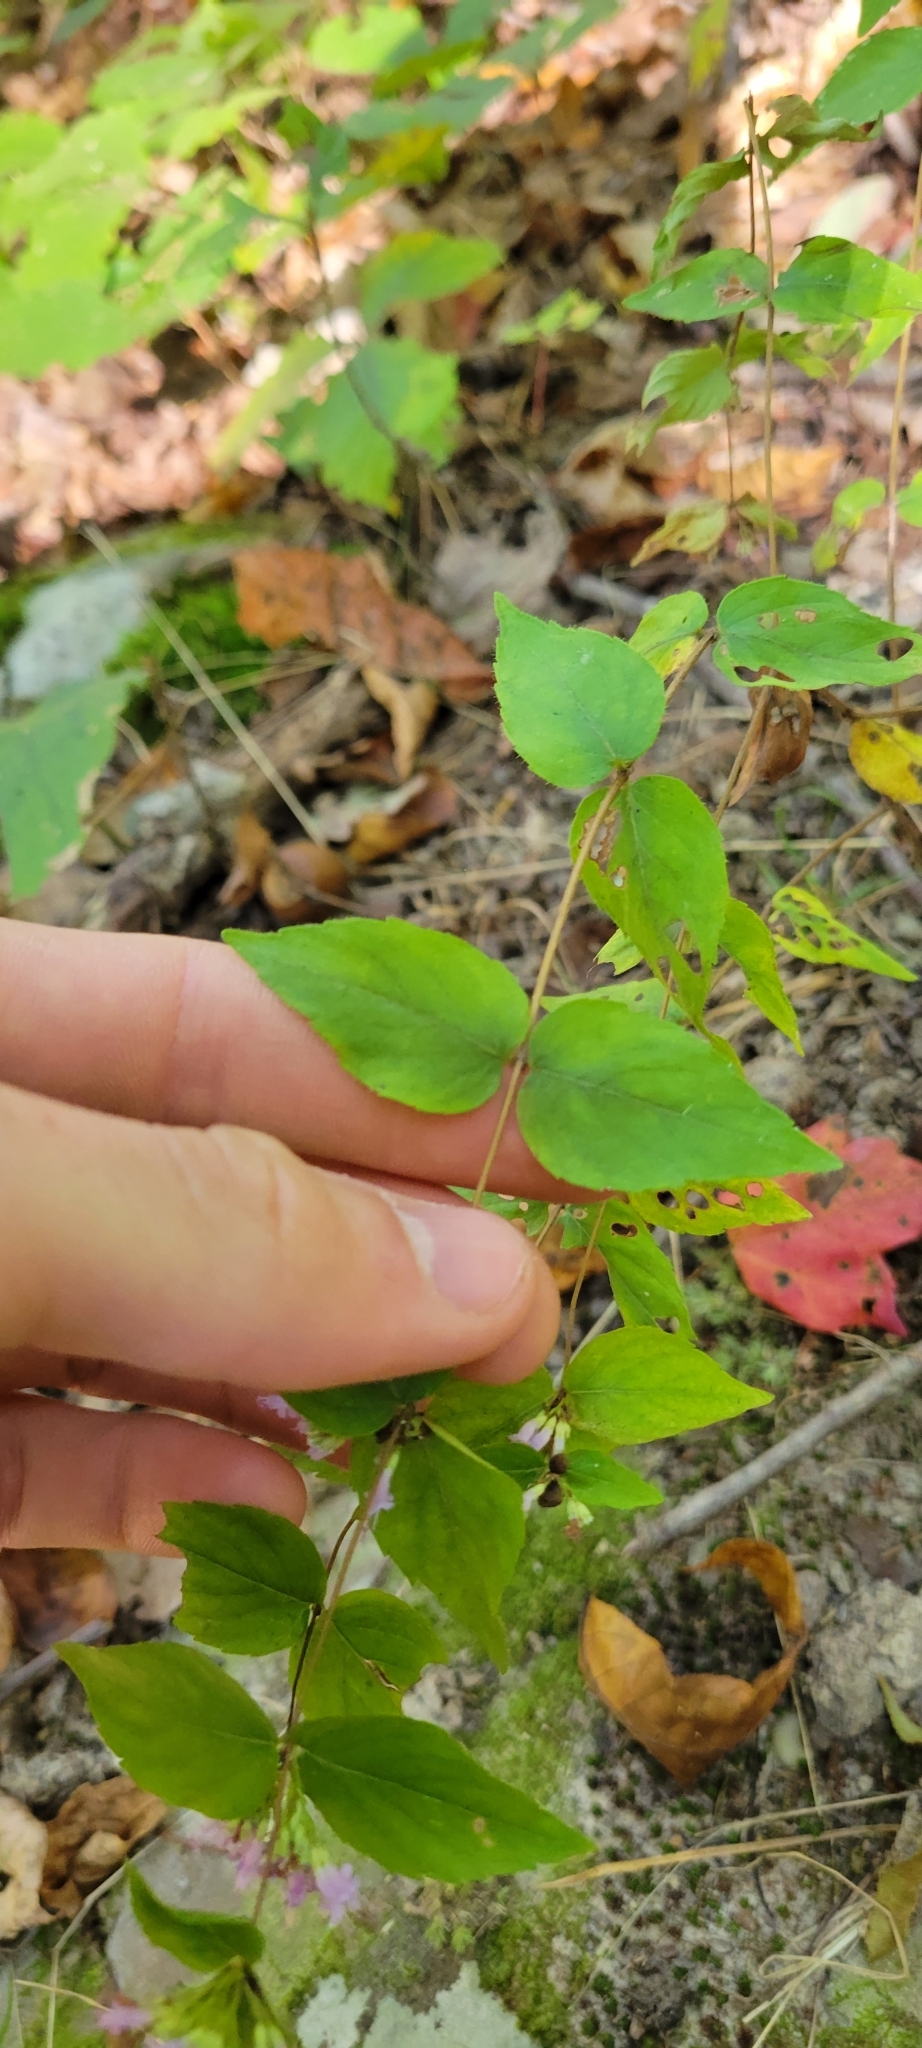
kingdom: Plantae
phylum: Tracheophyta
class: Magnoliopsida
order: Lamiales
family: Lamiaceae
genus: Cunila
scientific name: Cunila origanoides
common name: American dittany
